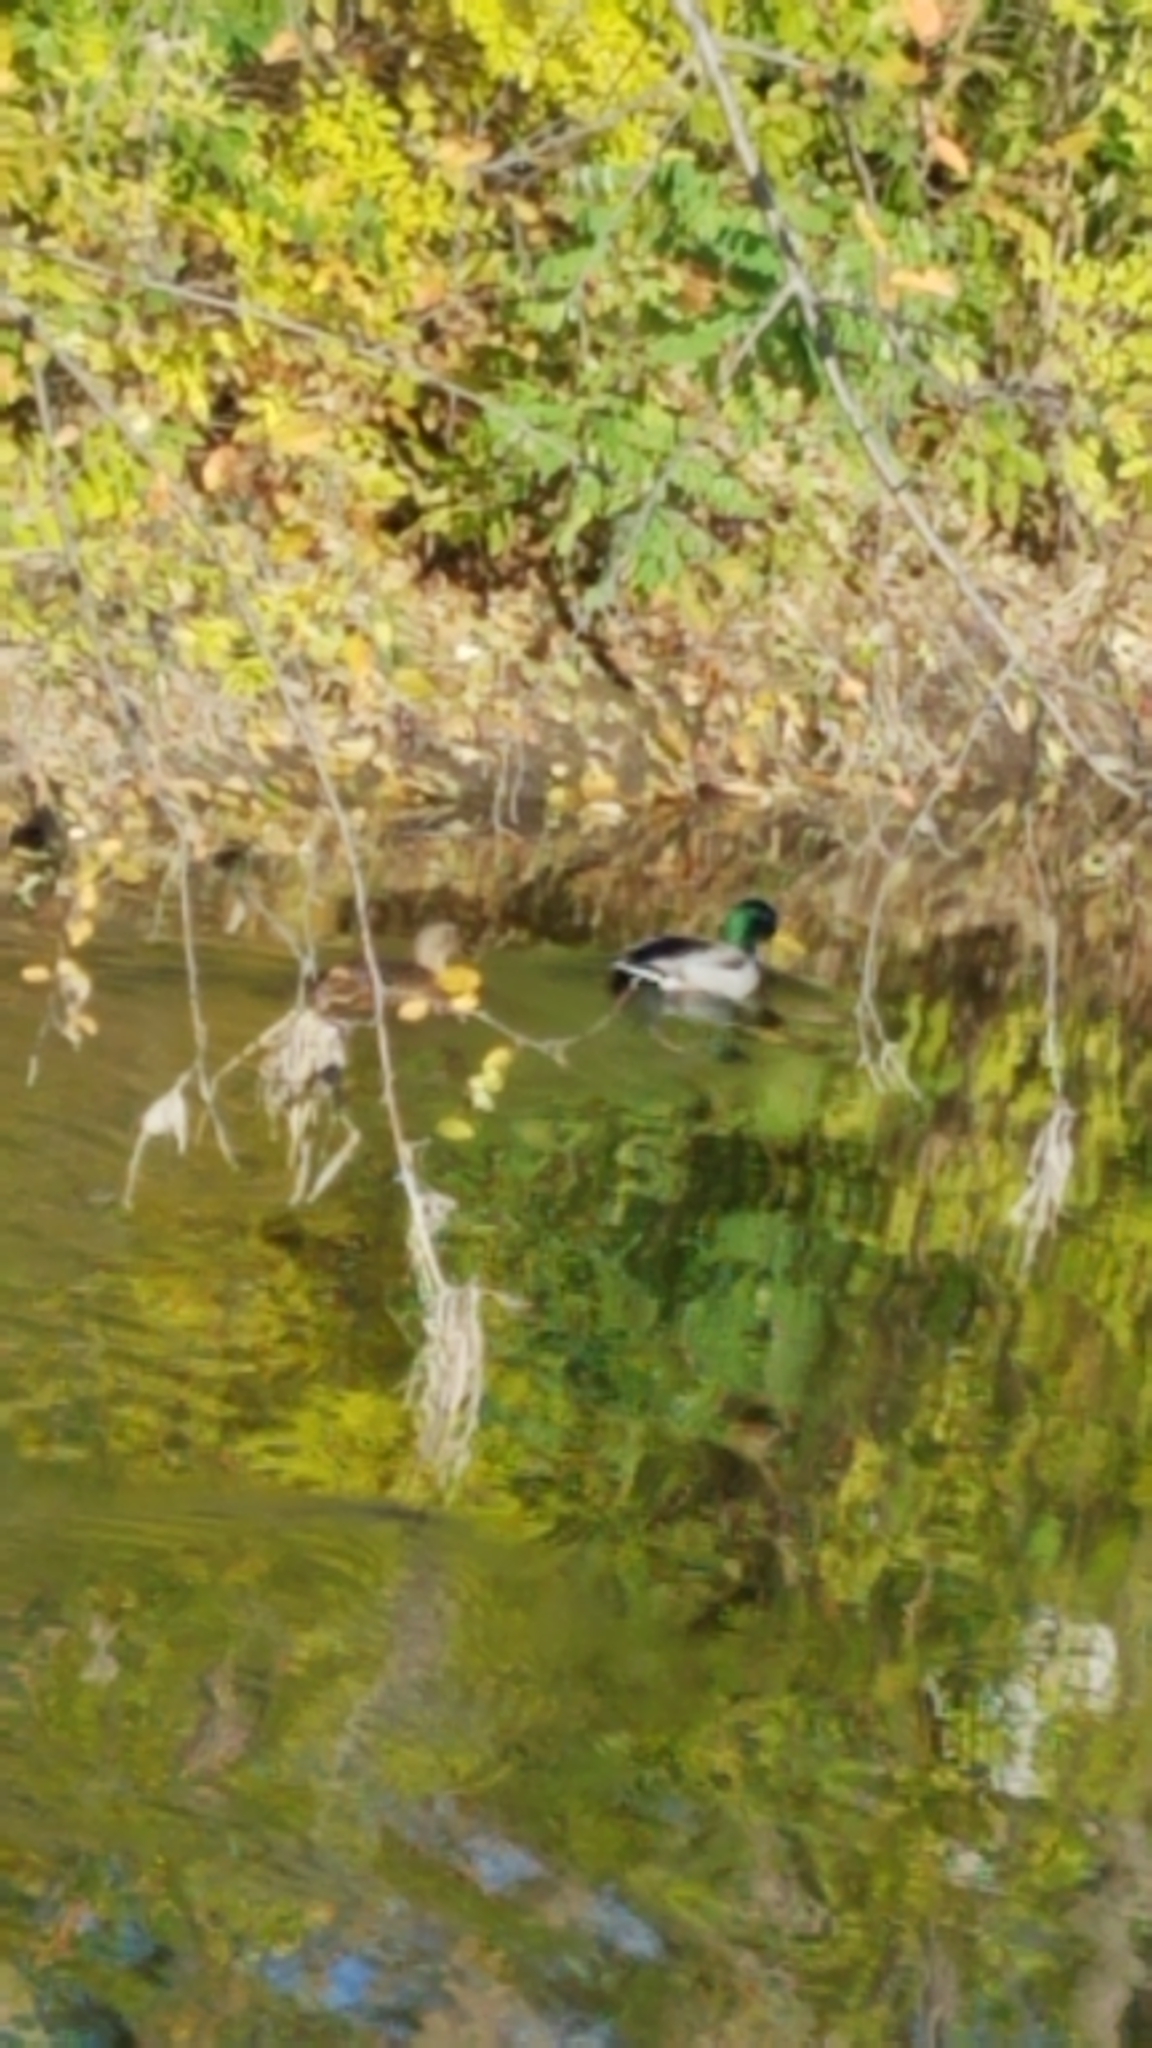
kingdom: Animalia
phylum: Chordata
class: Aves
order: Anseriformes
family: Anatidae
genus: Anas
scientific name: Anas platyrhynchos
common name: Mallard
